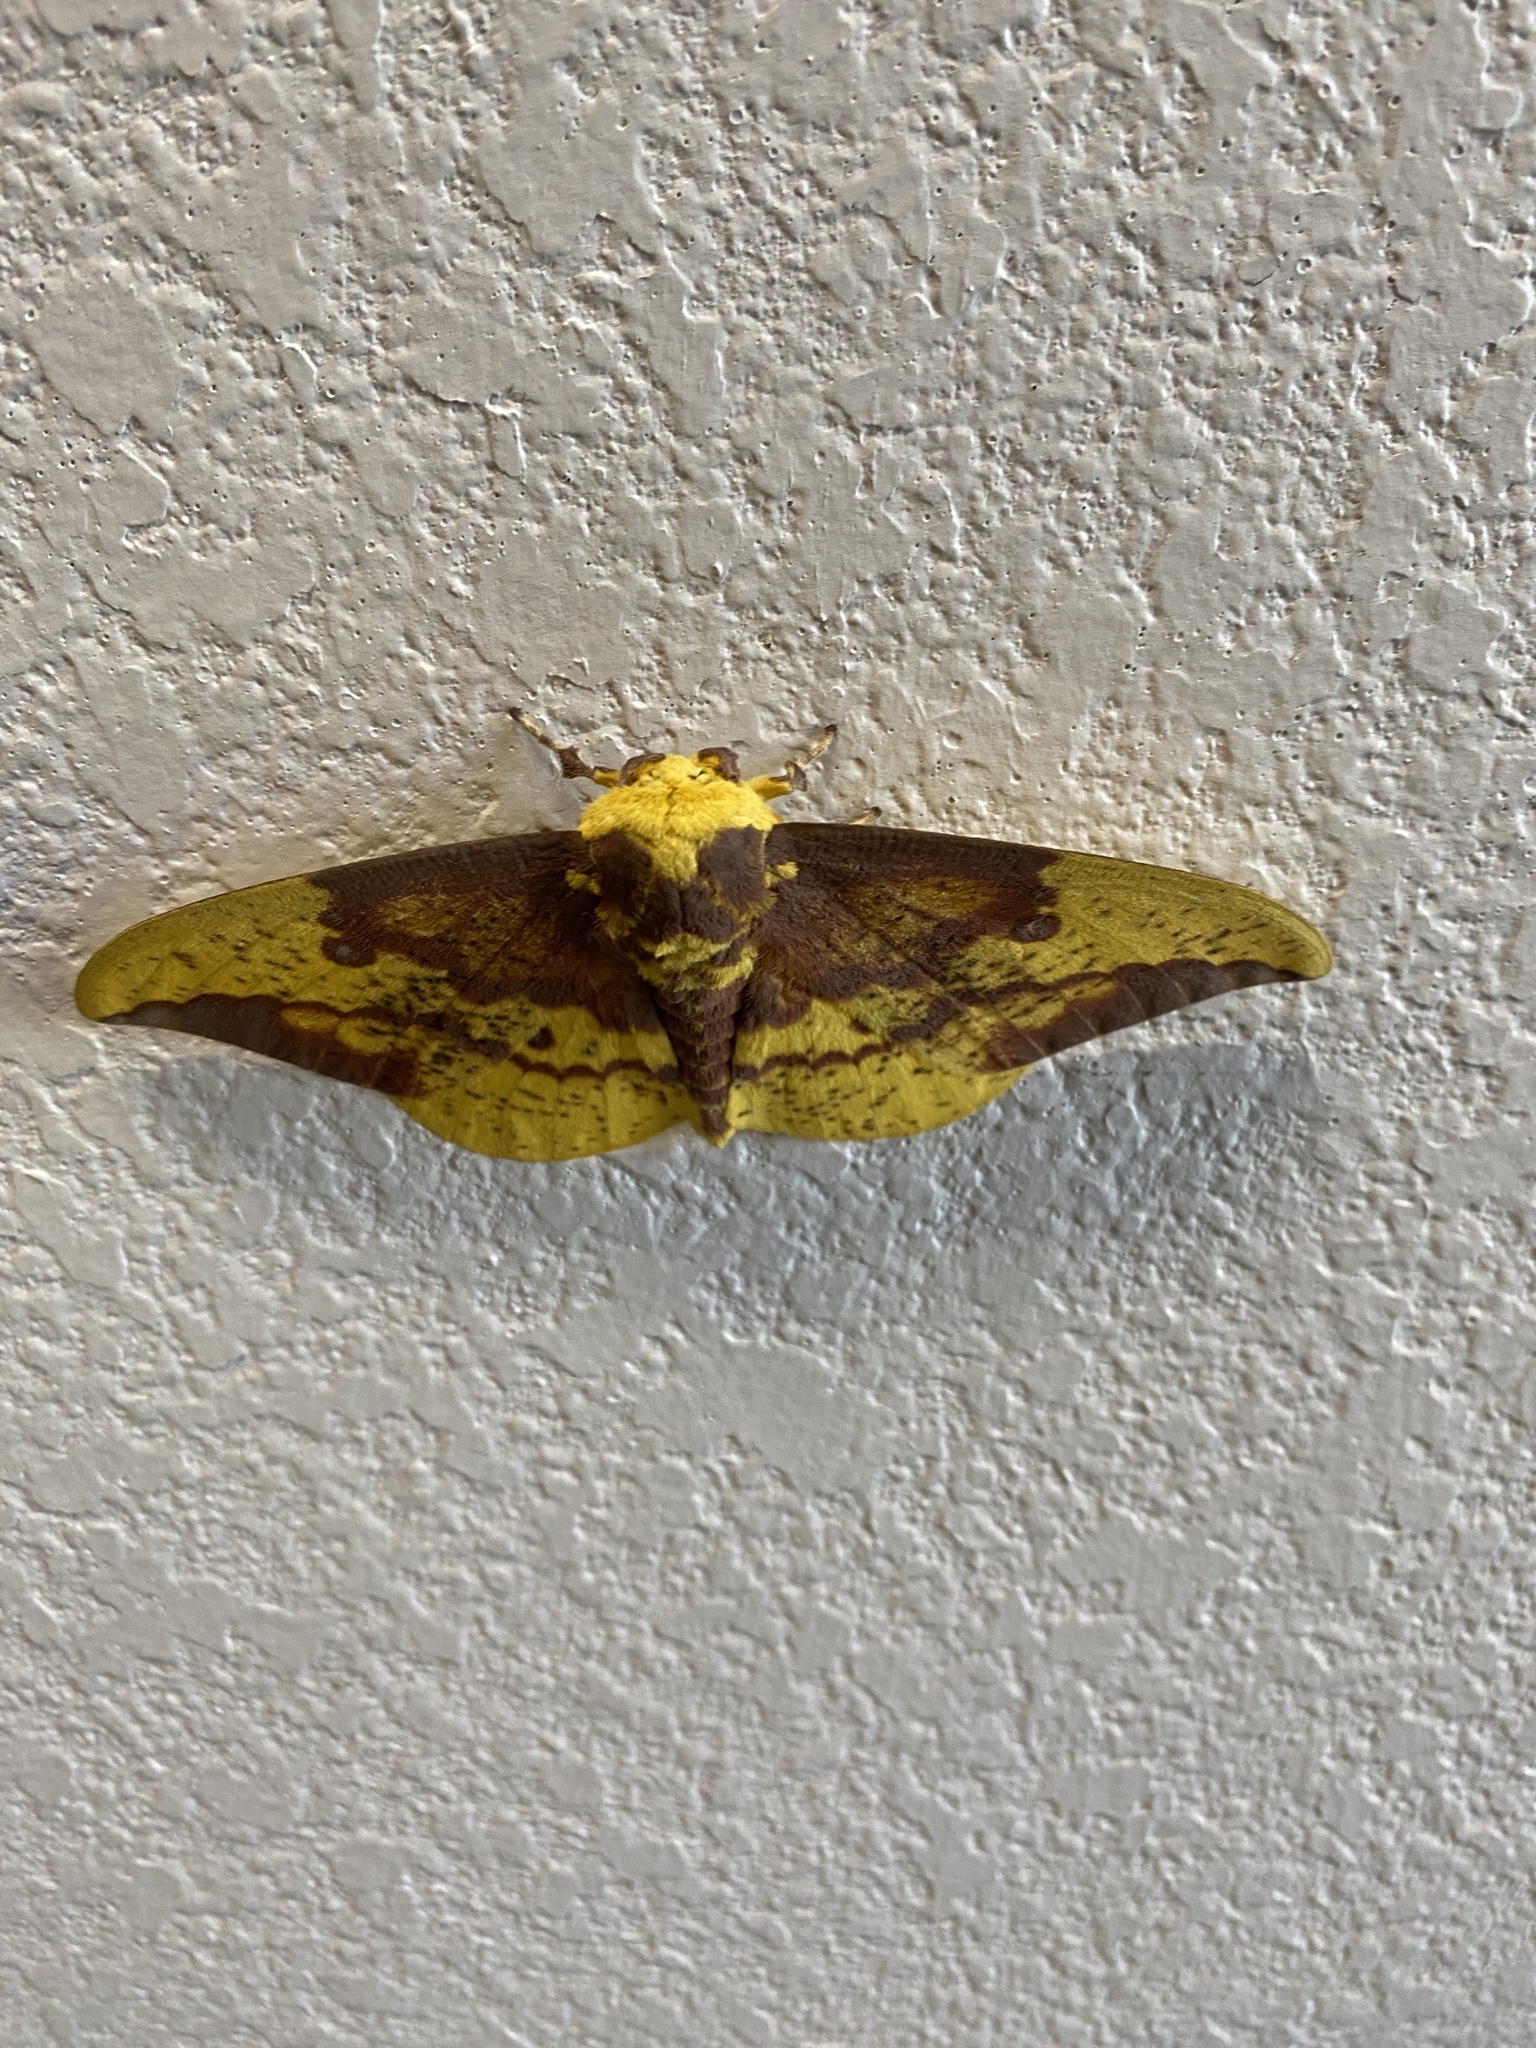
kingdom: Animalia
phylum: Arthropoda
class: Insecta
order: Lepidoptera
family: Saturniidae
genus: Eacles
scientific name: Eacles imperialis
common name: Imperial moth
